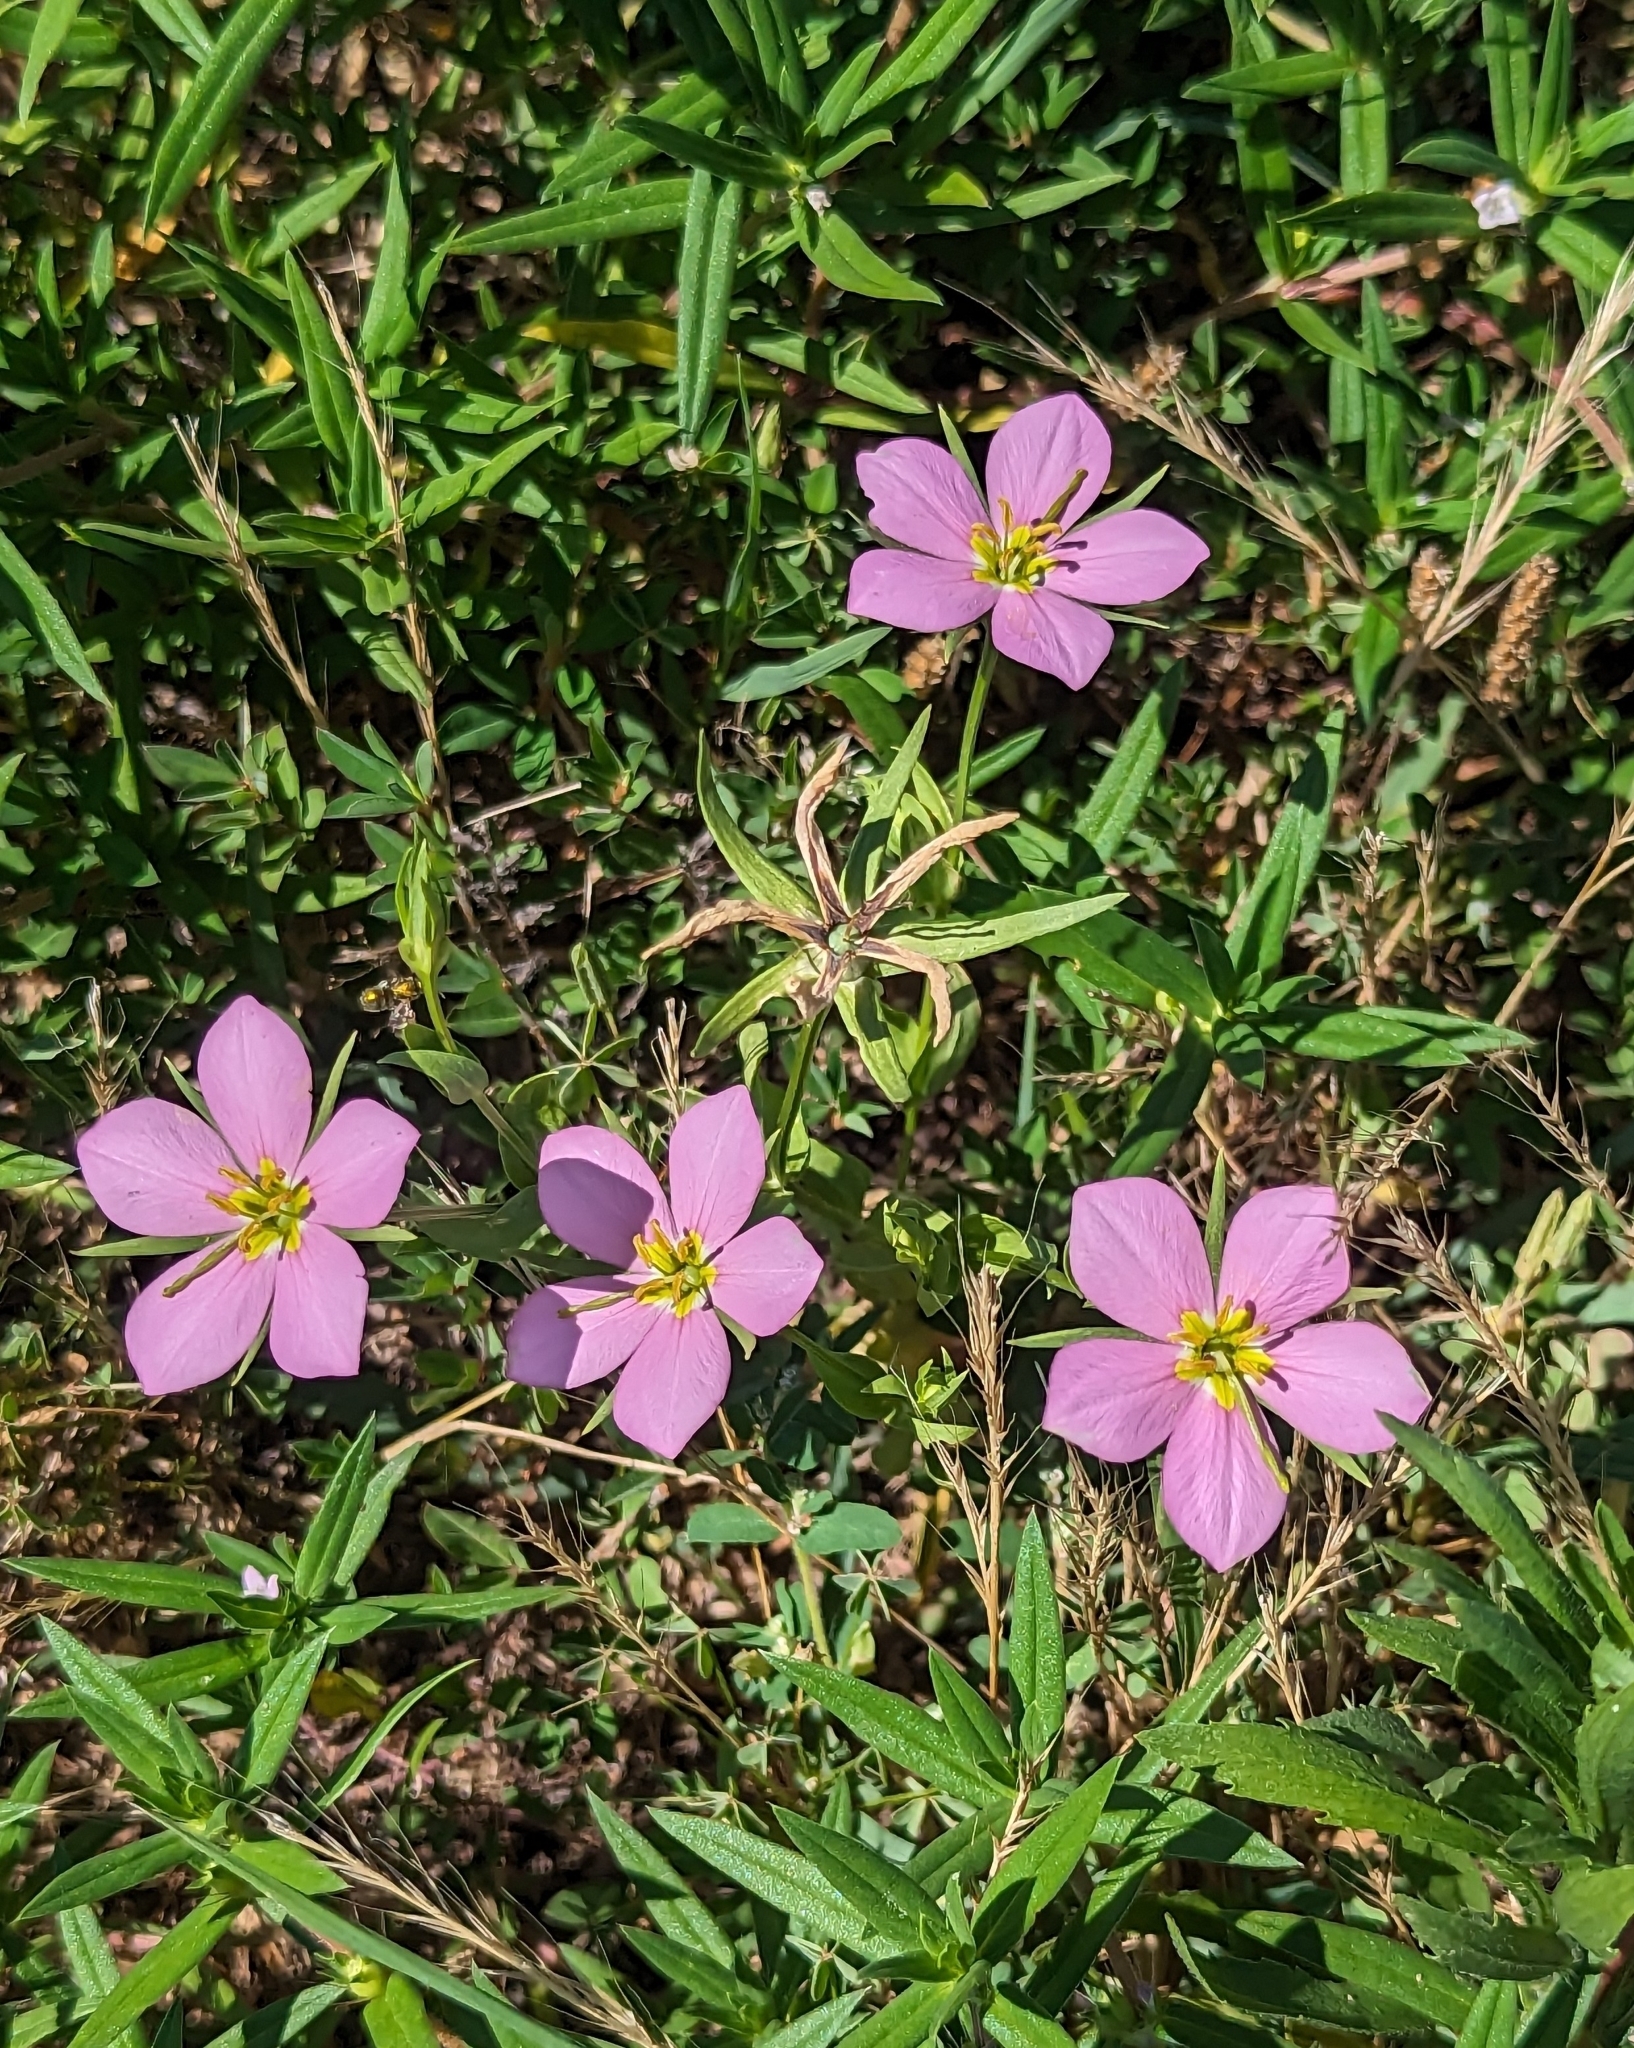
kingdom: Plantae
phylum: Tracheophyta
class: Magnoliopsida
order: Gentianales
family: Gentianaceae
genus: Sabatia
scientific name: Sabatia campestris
